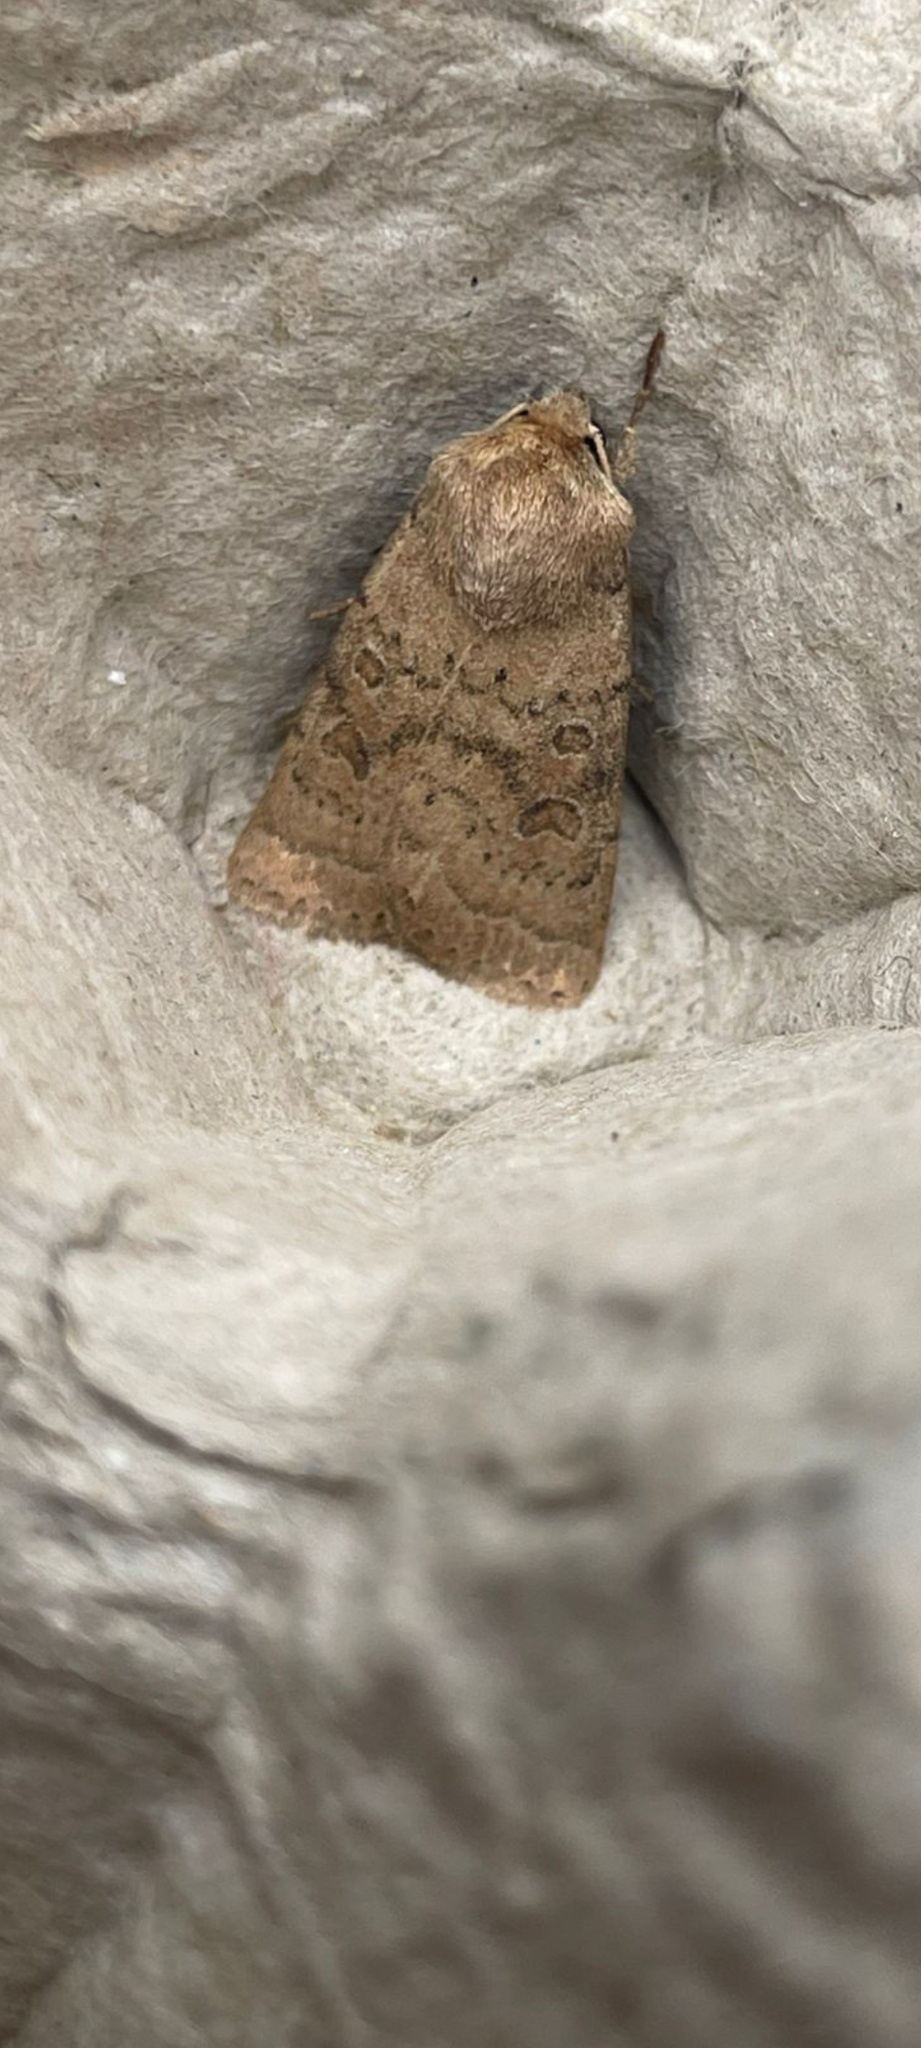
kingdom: Animalia
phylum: Arthropoda
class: Insecta
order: Lepidoptera
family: Noctuidae
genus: Hoplodrina
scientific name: Hoplodrina octogenaria
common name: Uncertain
